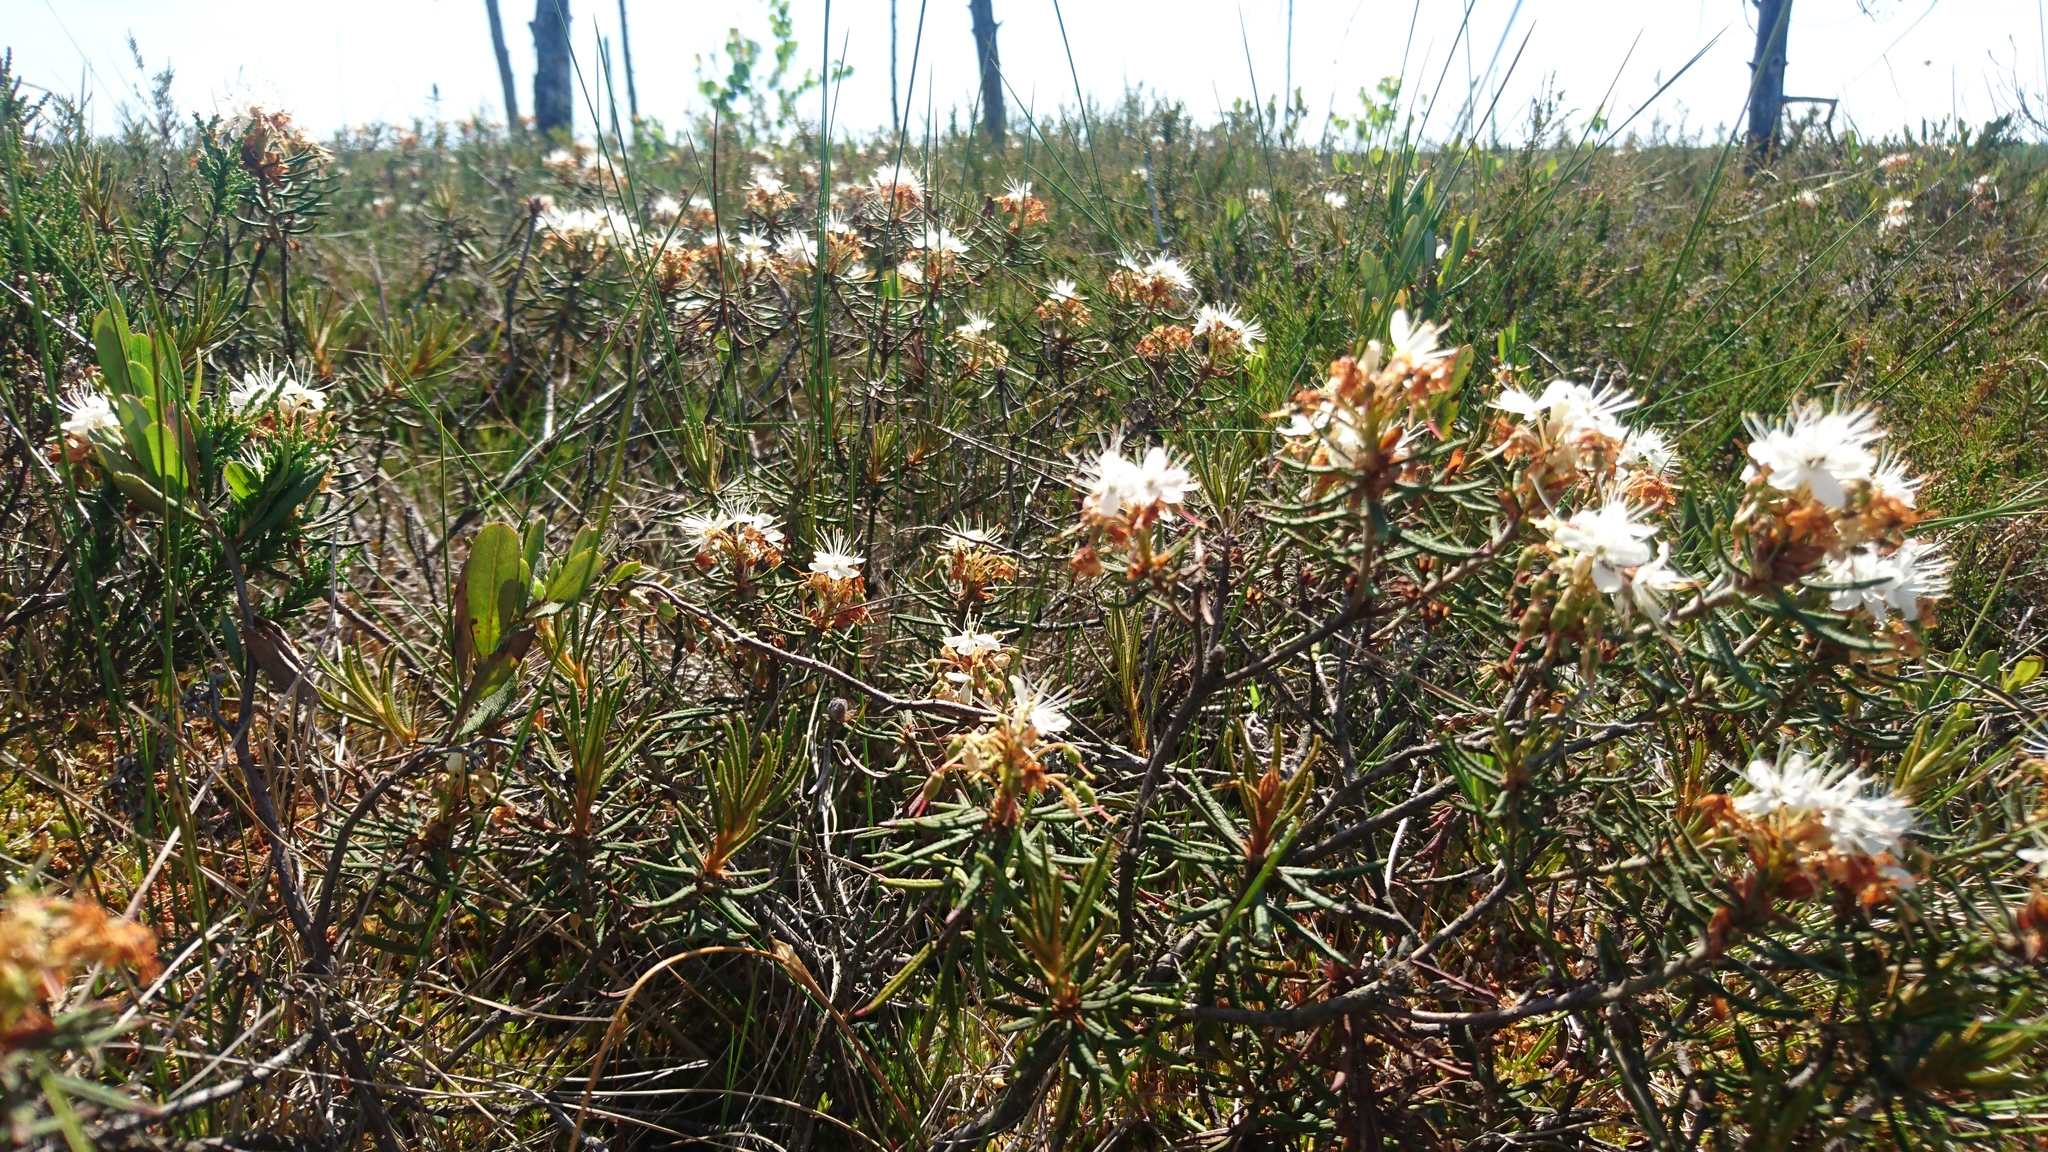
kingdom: Plantae
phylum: Tracheophyta
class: Magnoliopsida
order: Ericales
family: Ericaceae
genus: Rhododendron
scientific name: Rhododendron tomentosum
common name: Marsh labrador tea
